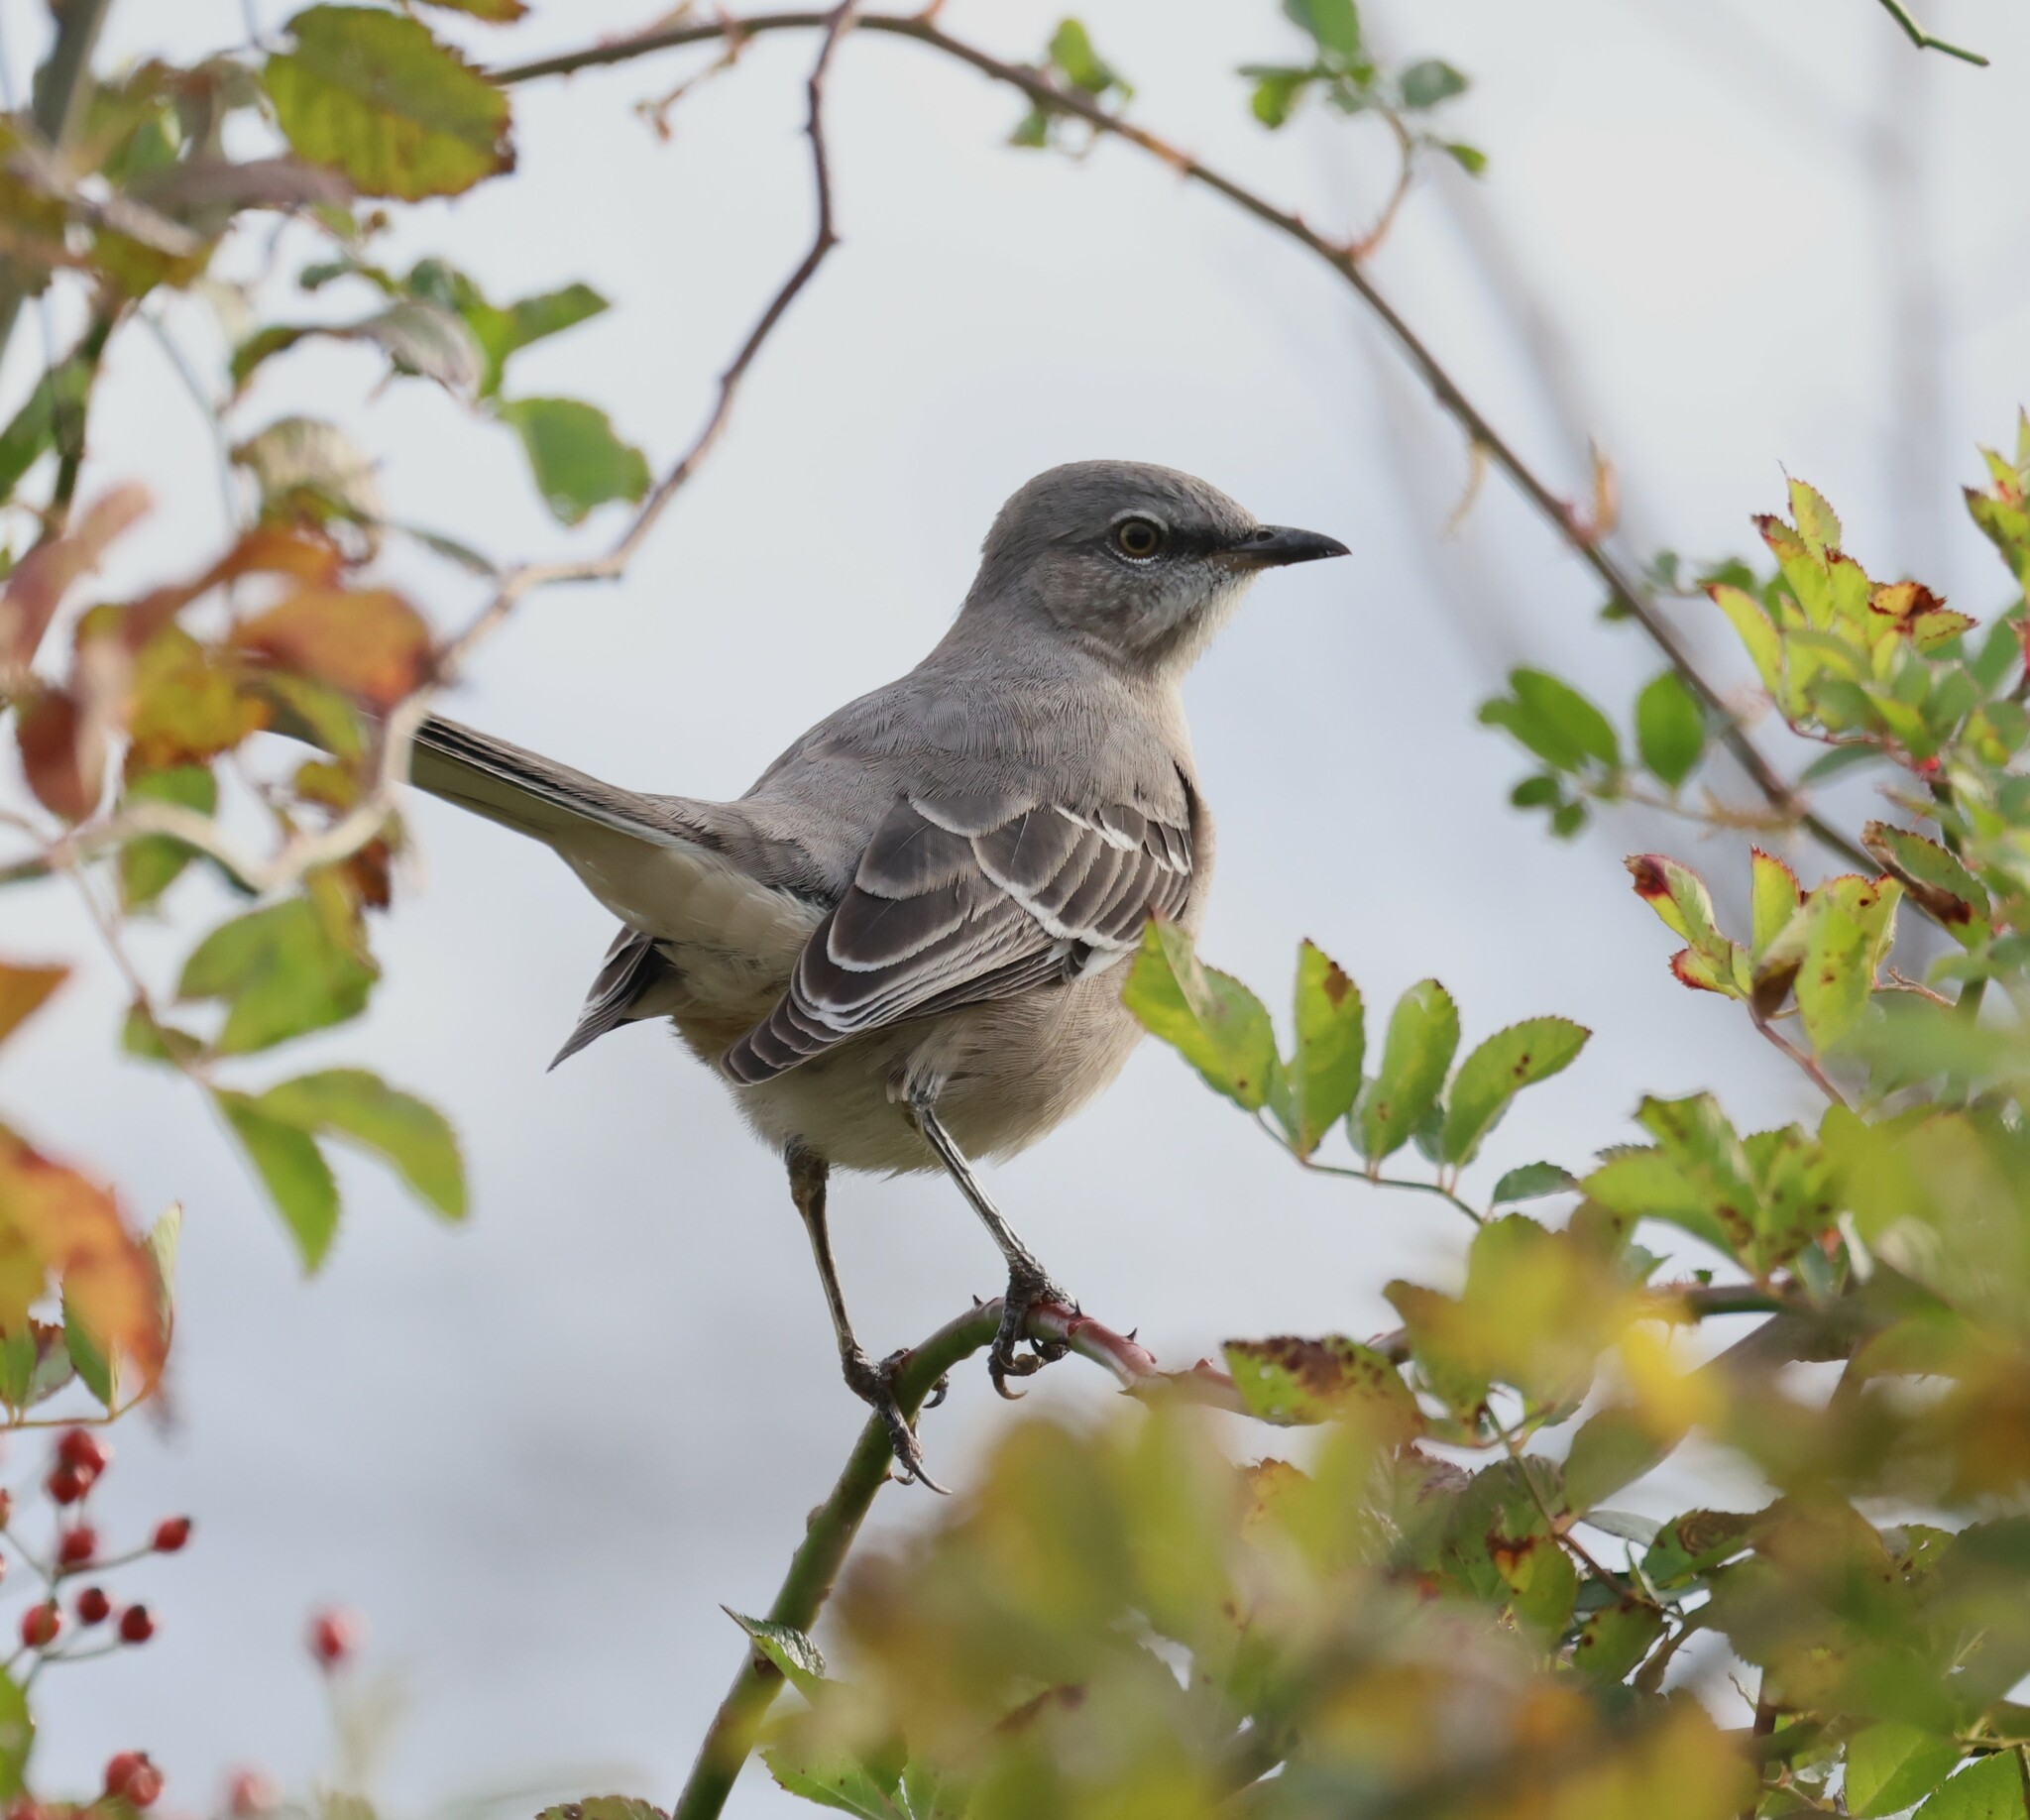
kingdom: Animalia
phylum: Chordata
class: Aves
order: Passeriformes
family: Mimidae
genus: Mimus
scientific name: Mimus polyglottos
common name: Northern mockingbird
